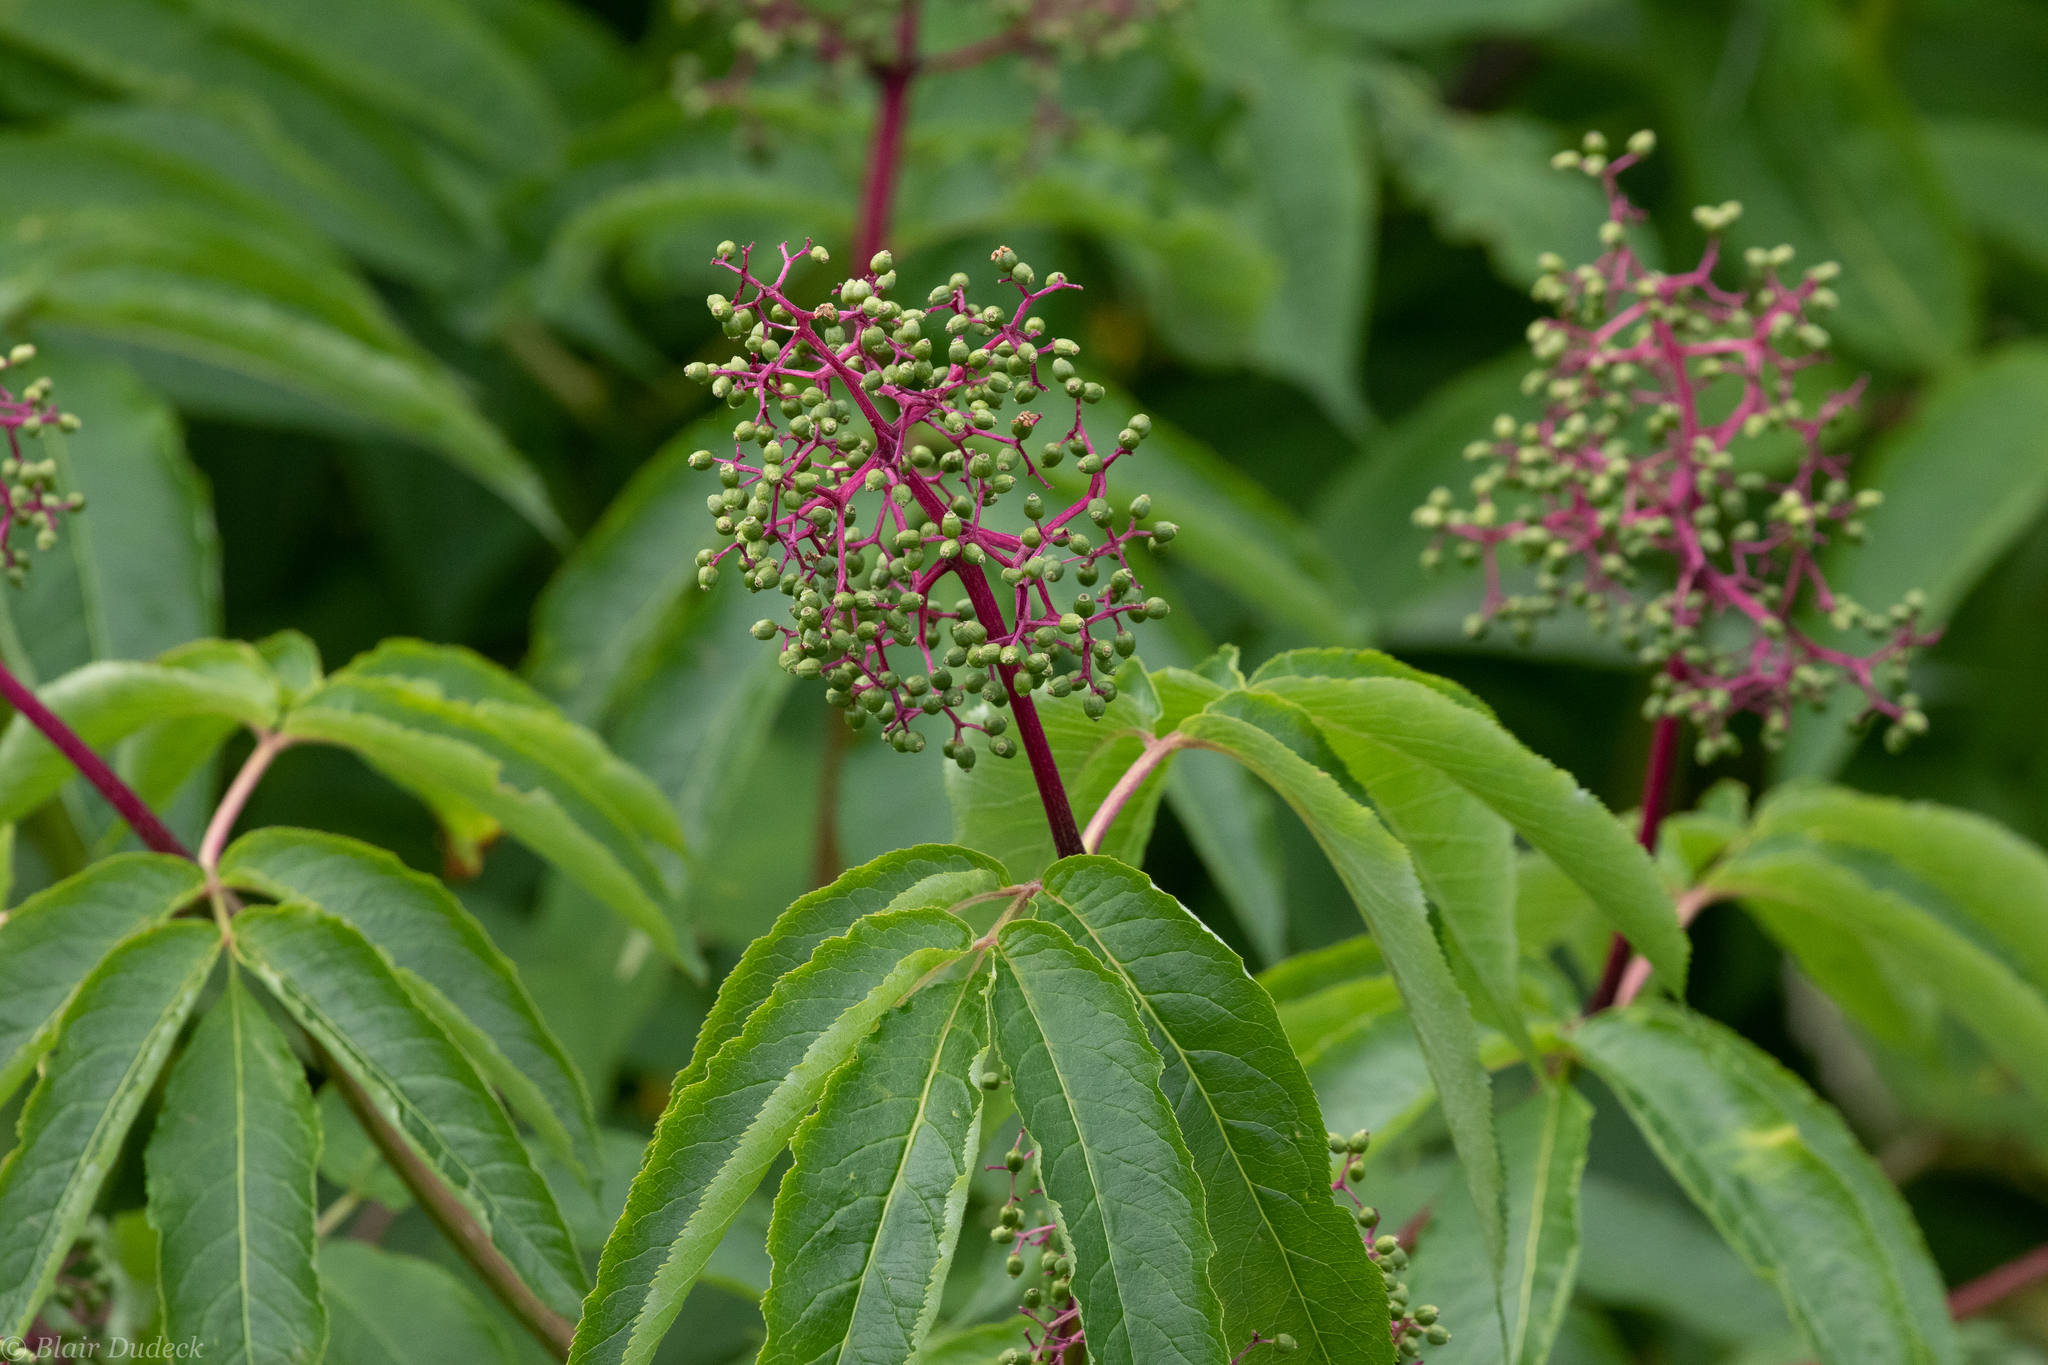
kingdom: Plantae
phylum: Tracheophyta
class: Magnoliopsida
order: Dipsacales
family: Viburnaceae
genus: Sambucus
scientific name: Sambucus racemosa
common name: Red-berried elder
